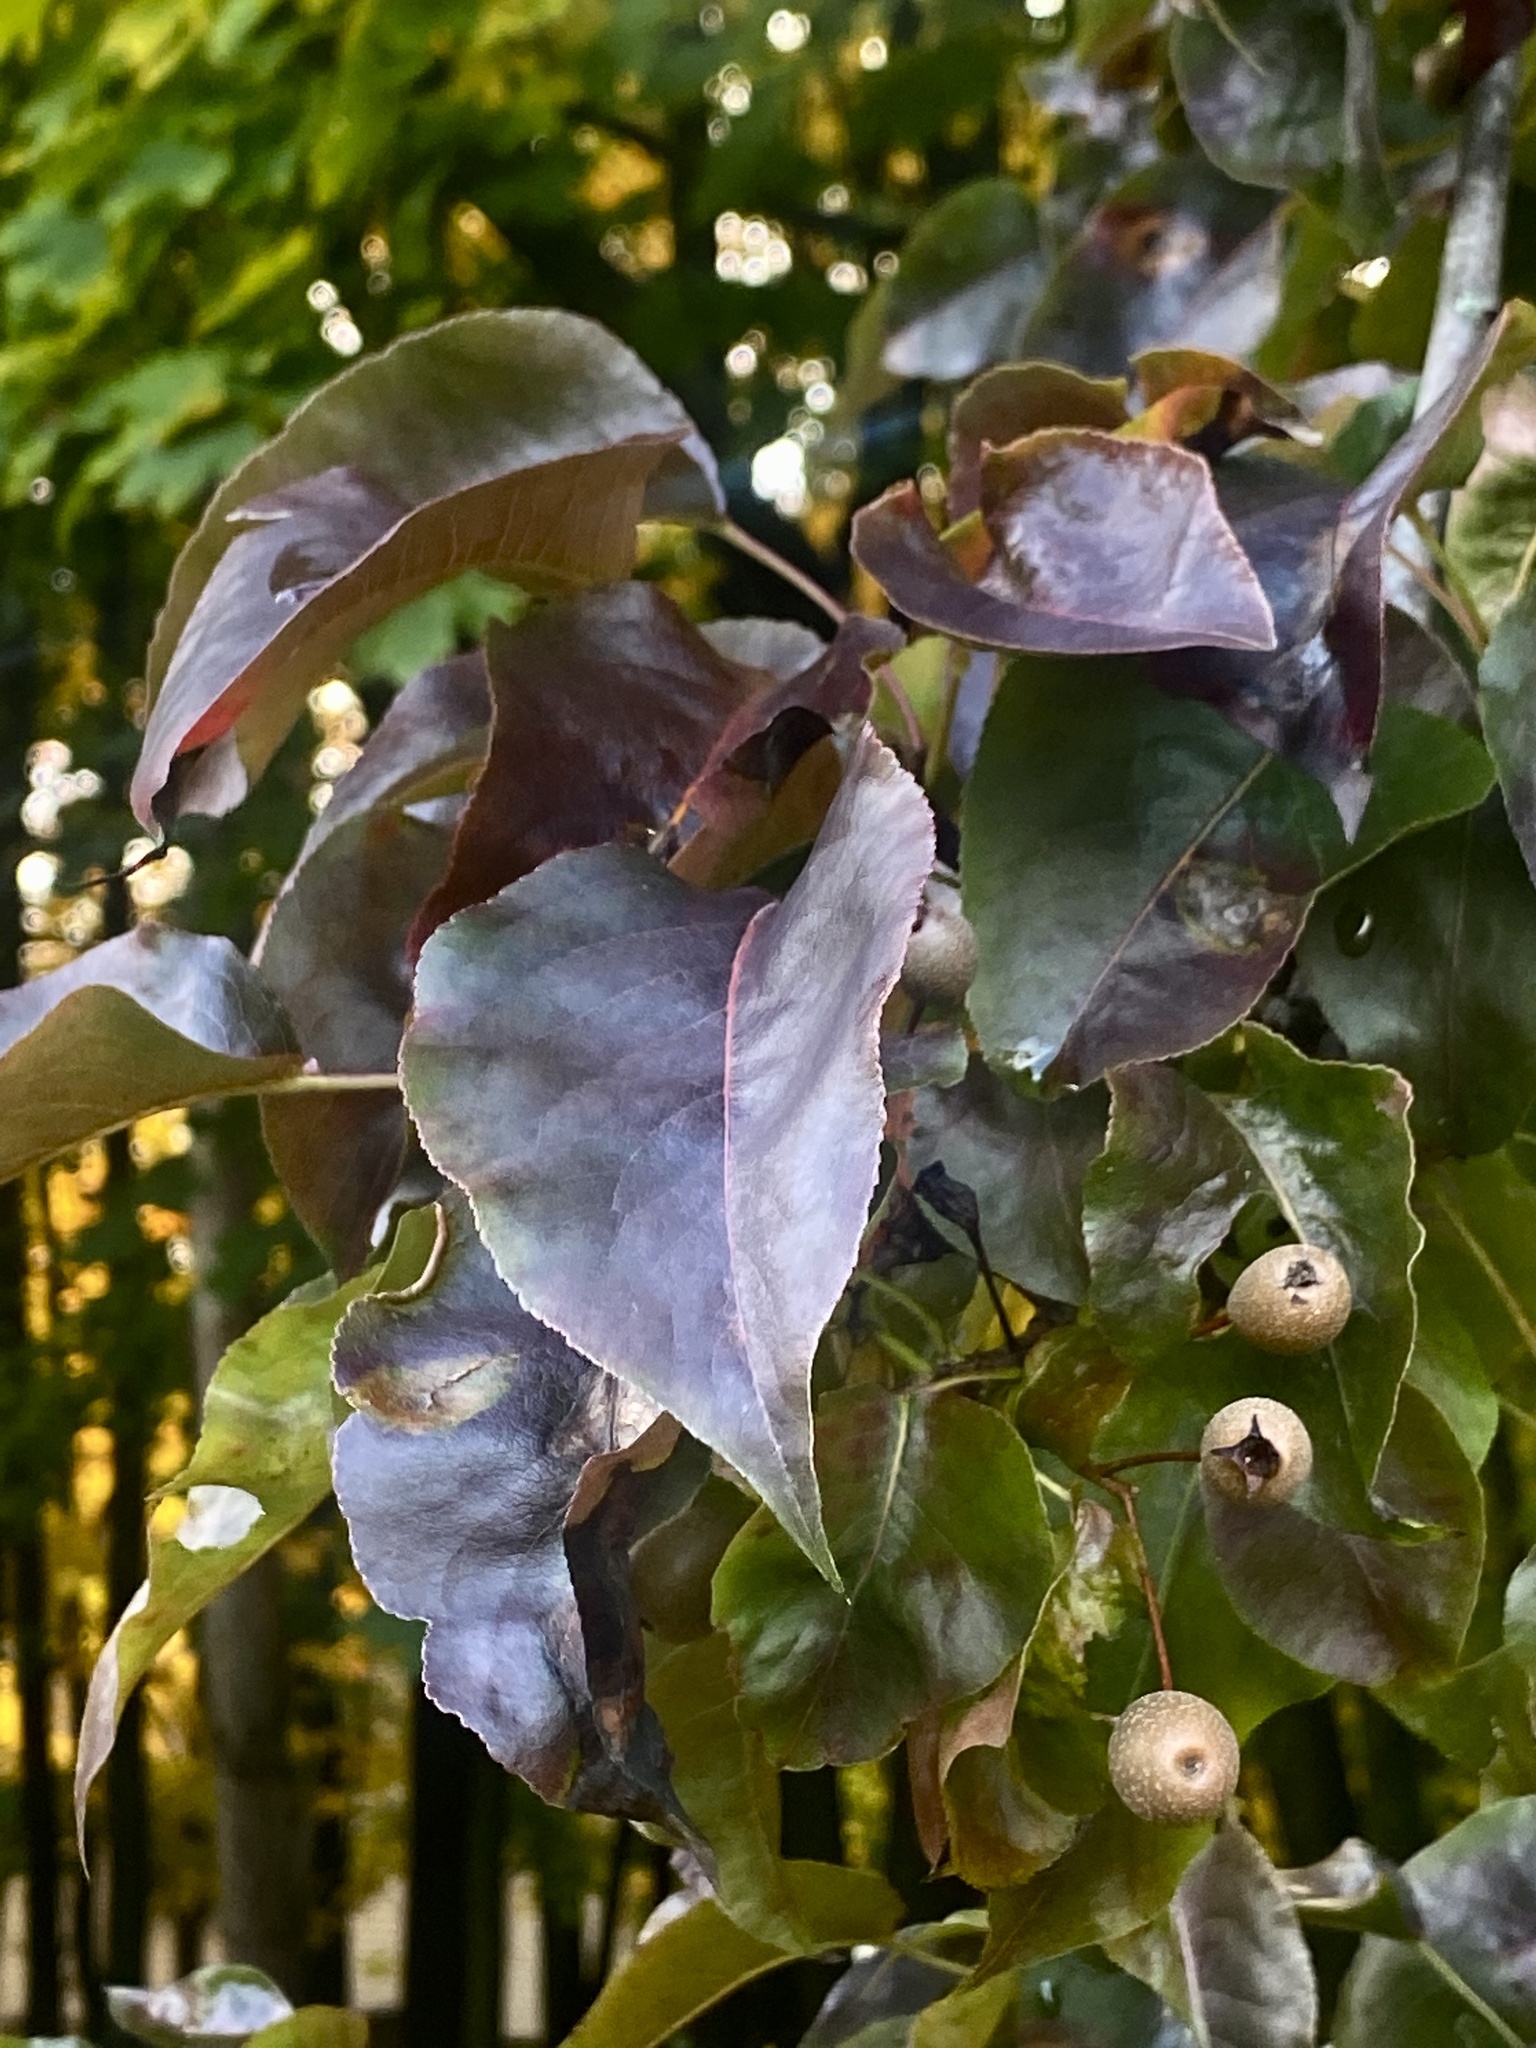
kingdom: Plantae
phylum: Tracheophyta
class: Magnoliopsida
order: Rosales
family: Rosaceae
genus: Pyrus
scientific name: Pyrus calleryana
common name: Callery pear
